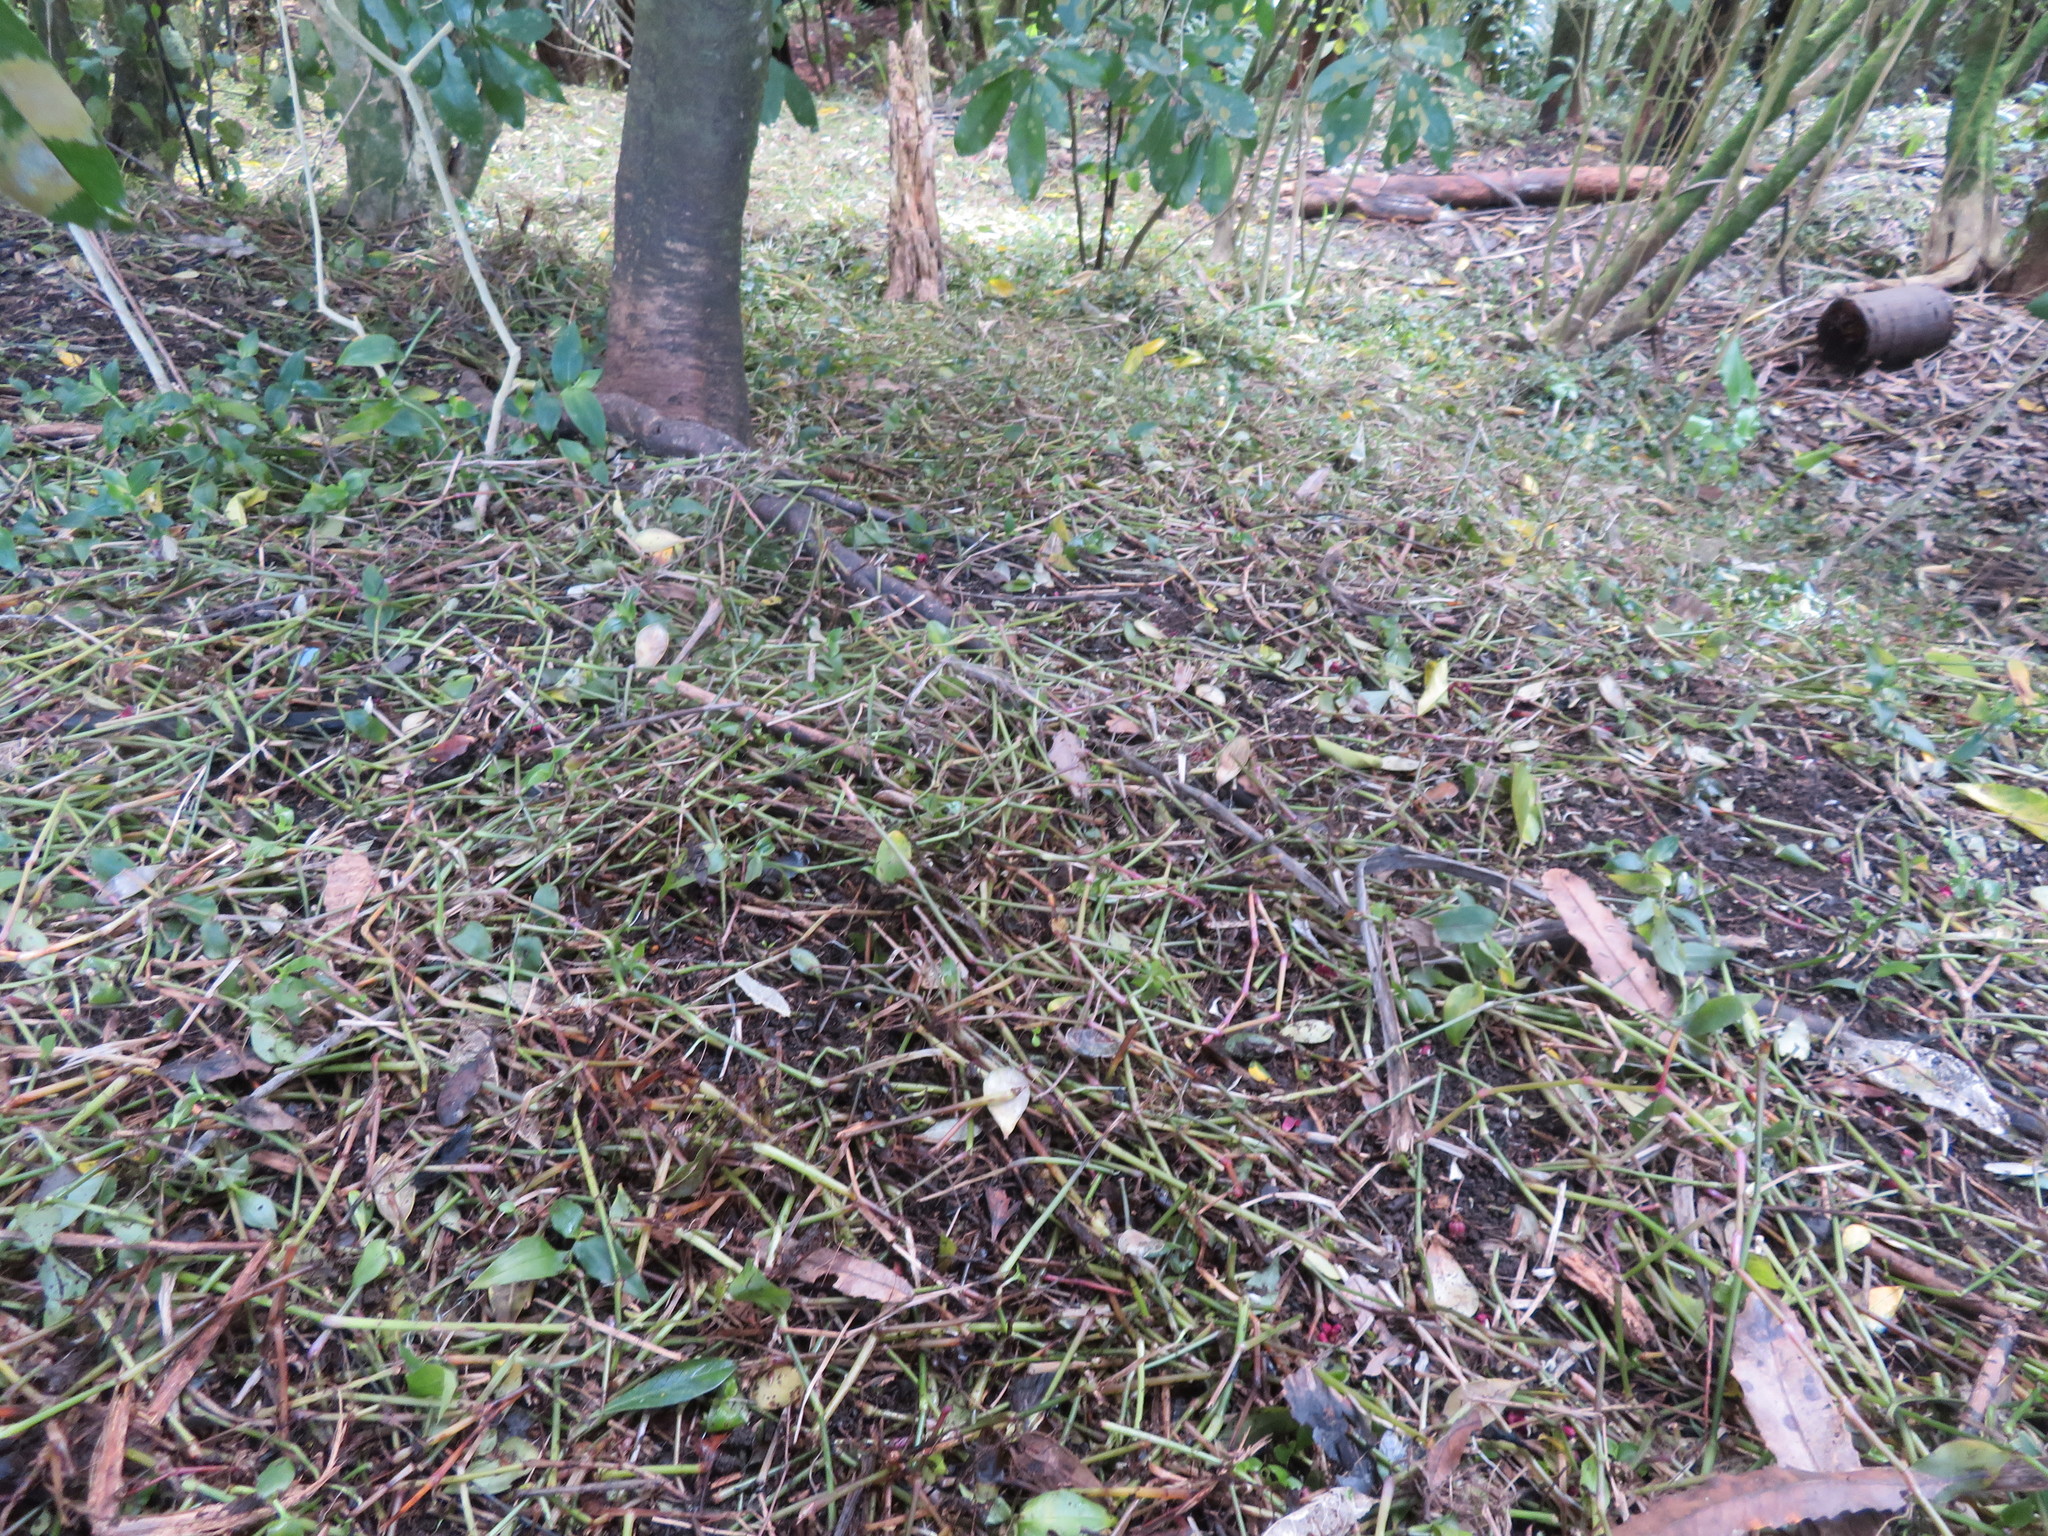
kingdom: Plantae
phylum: Tracheophyta
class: Magnoliopsida
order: Lamiales
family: Lamiaceae
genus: Vitex
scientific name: Vitex lucens
